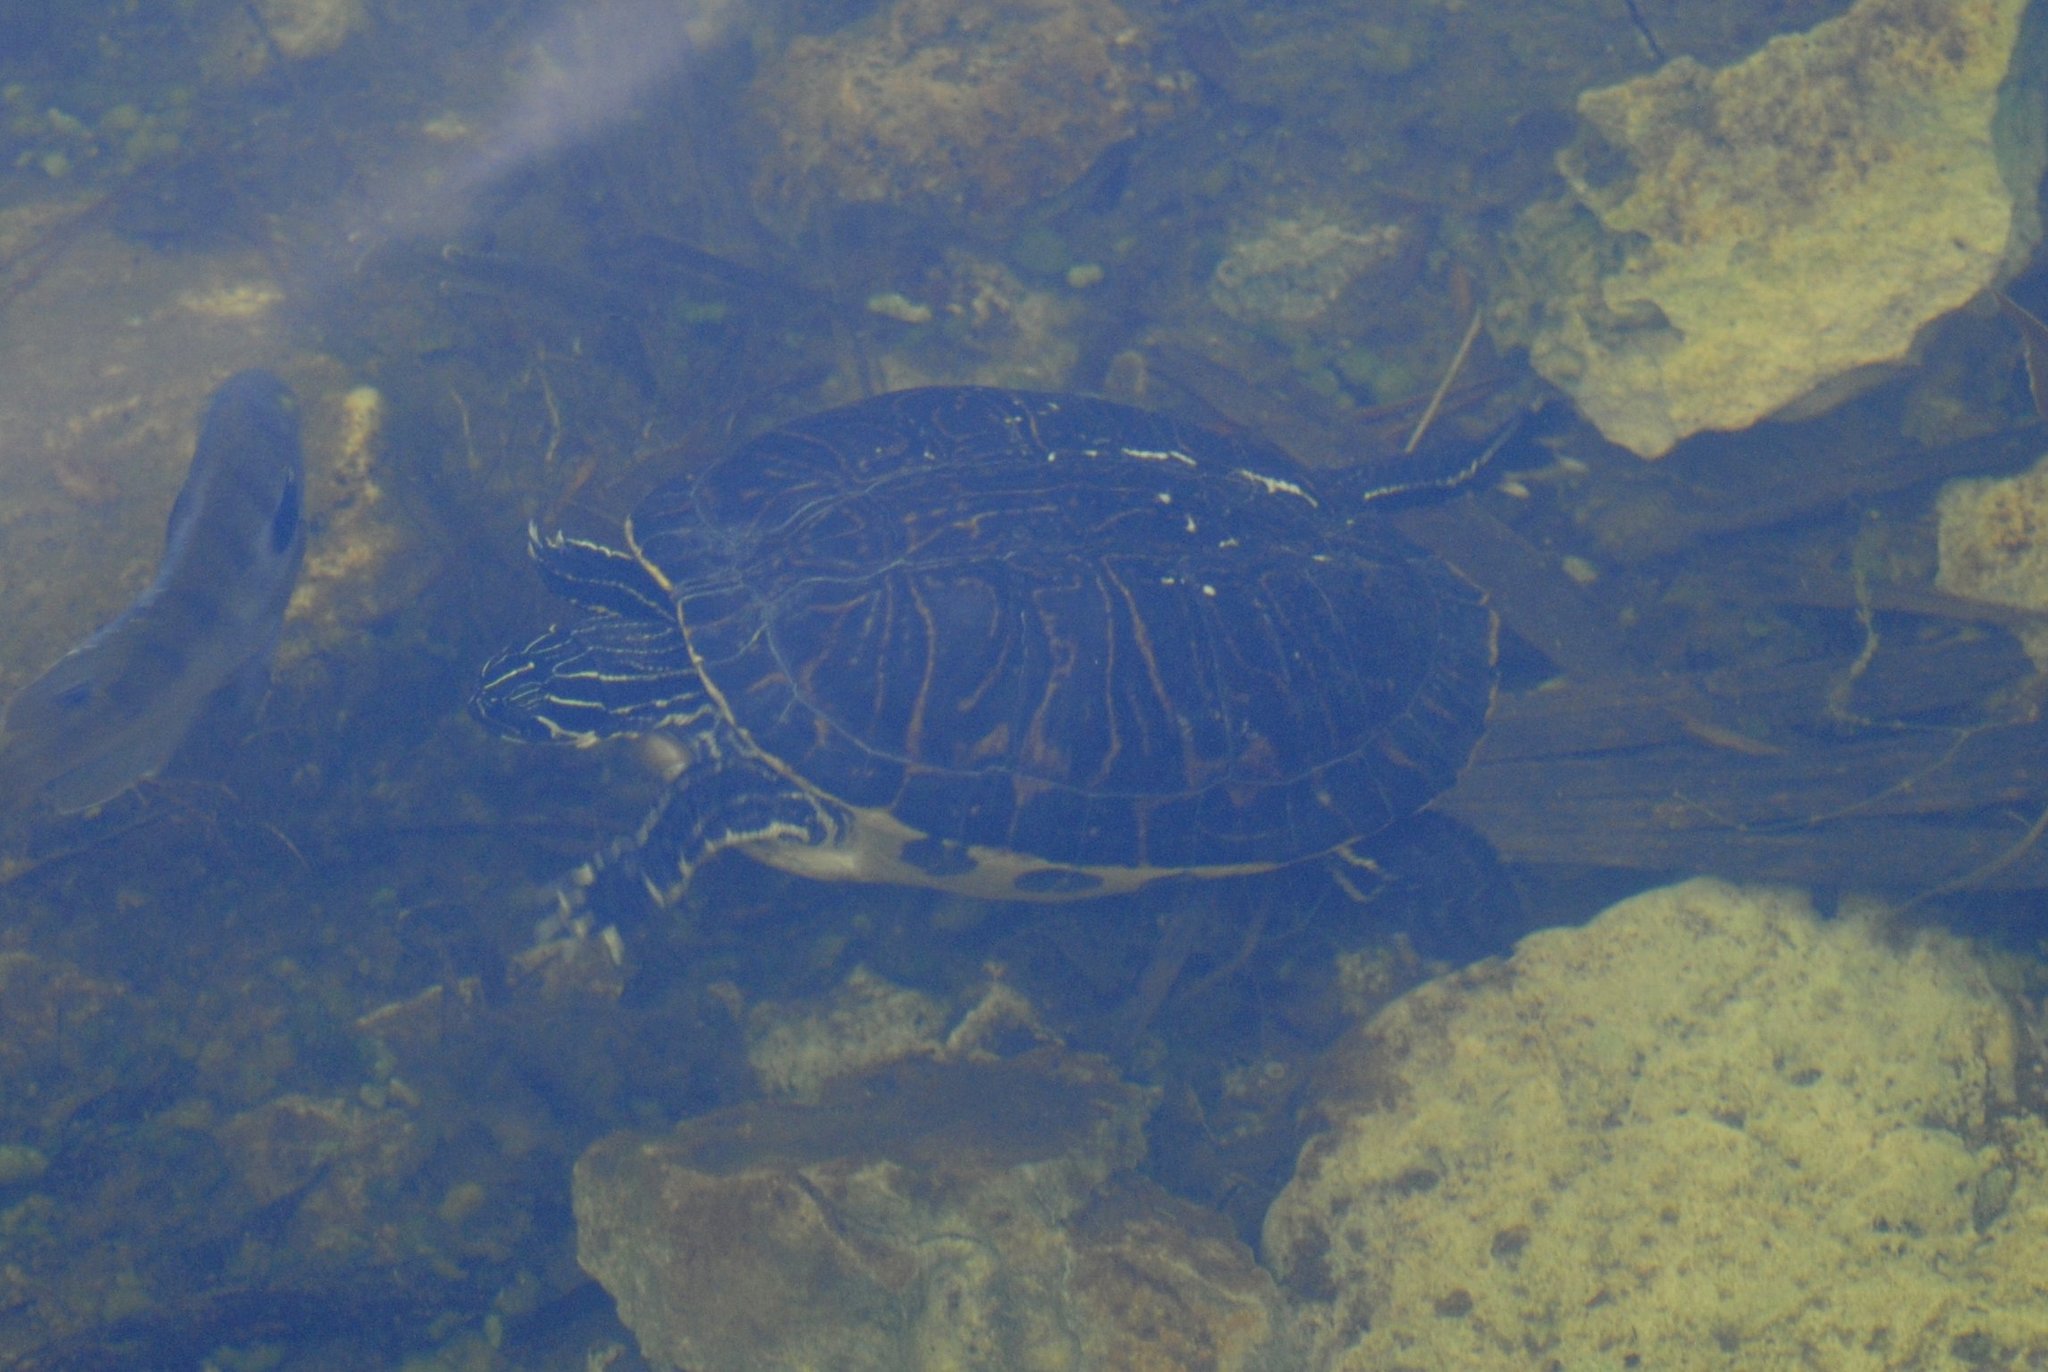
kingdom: Animalia
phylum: Chordata
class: Testudines
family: Emydidae
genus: Pseudemys
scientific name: Pseudemys peninsularis
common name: Peninsula cooter
